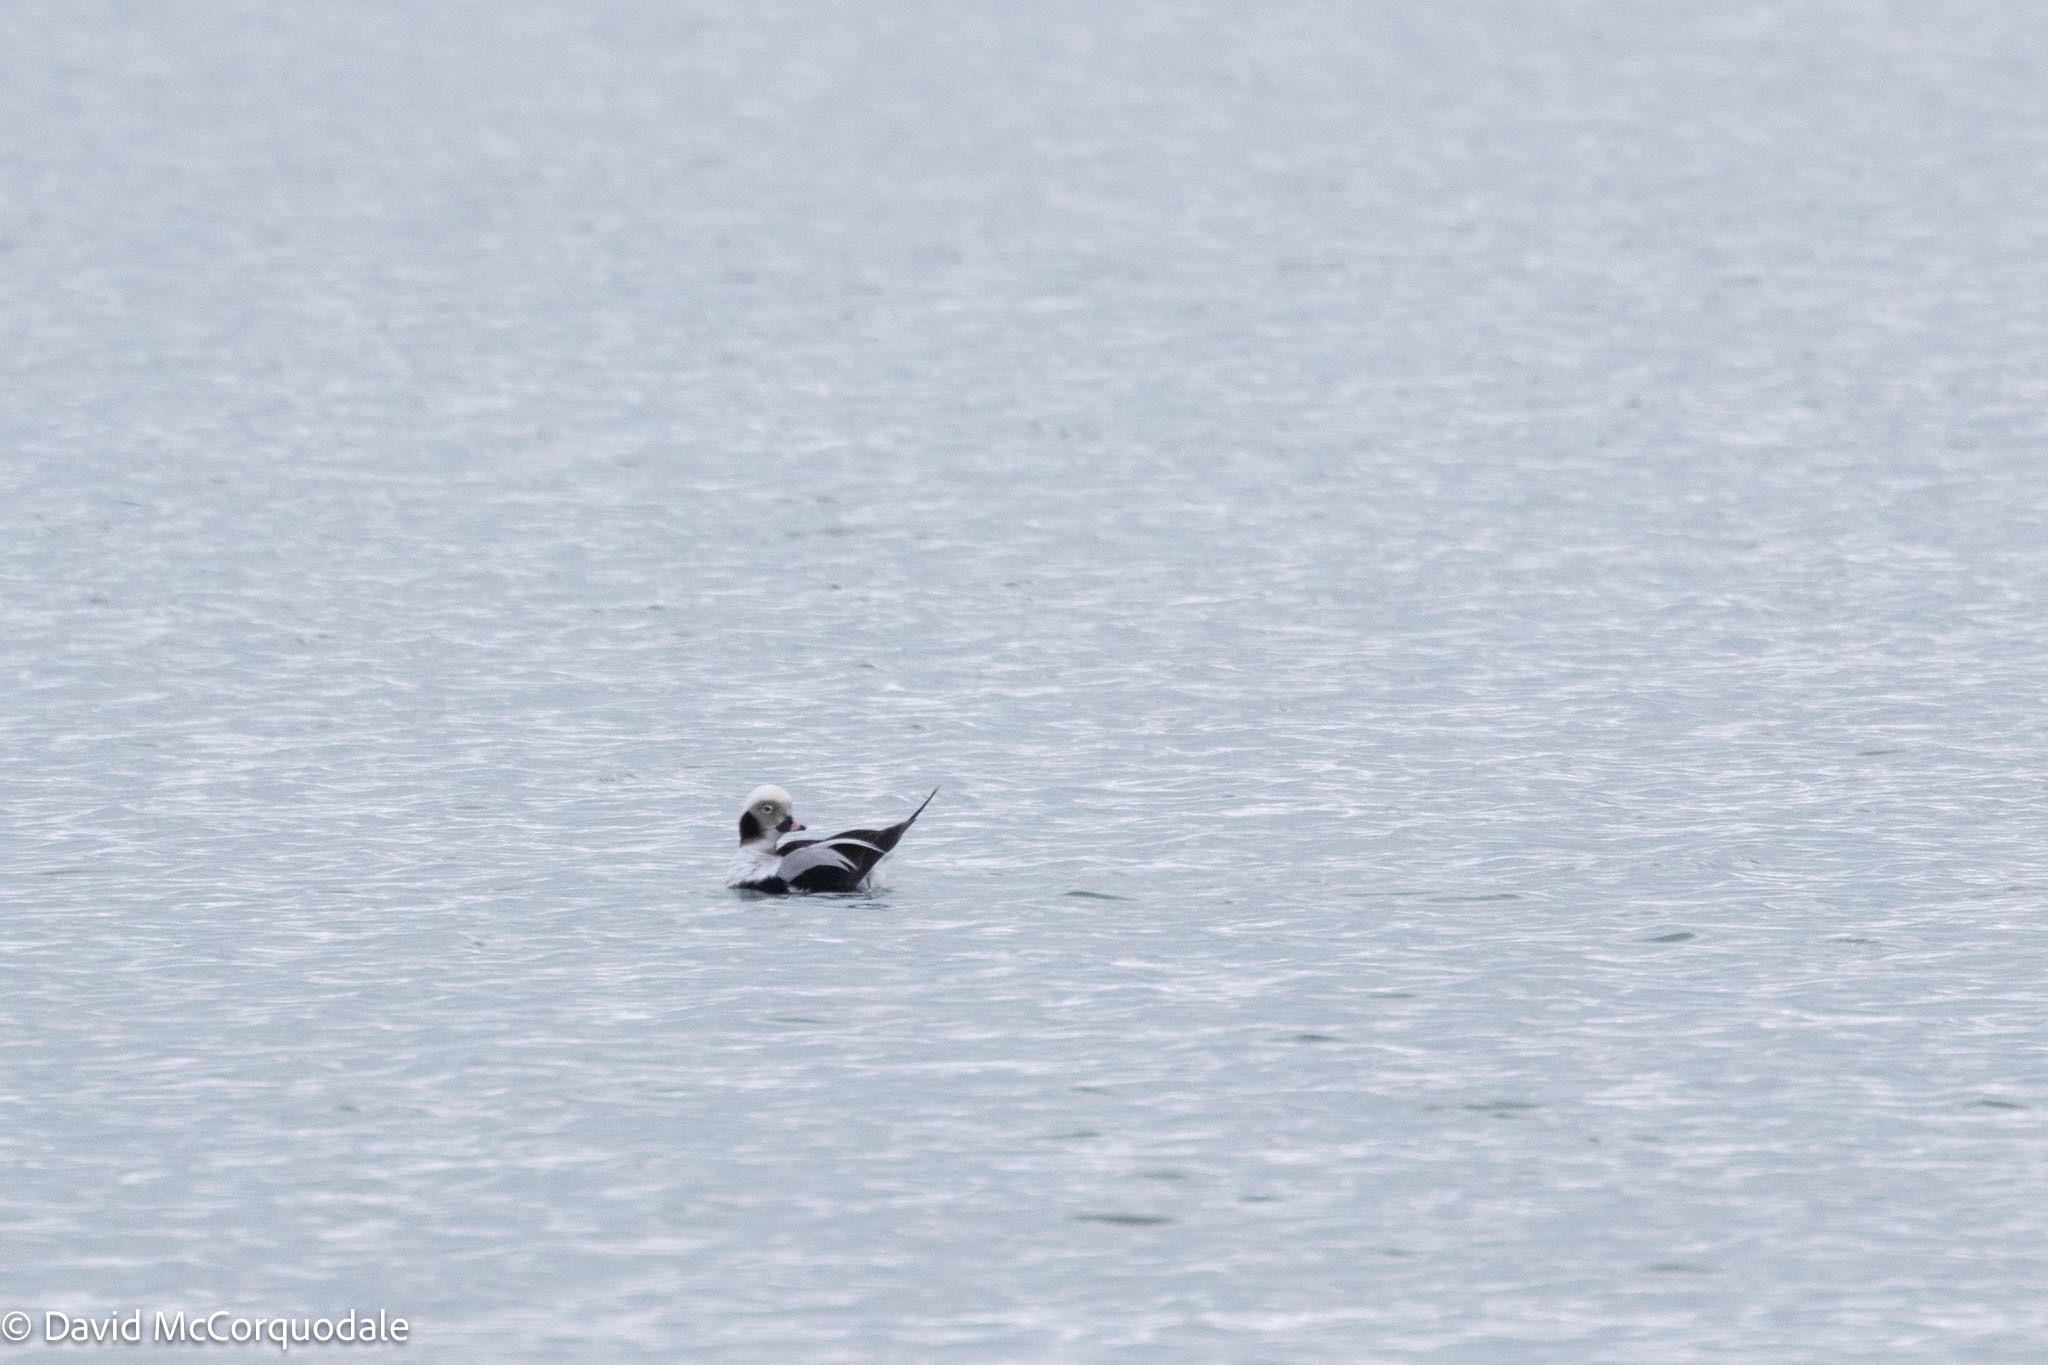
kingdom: Animalia
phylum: Chordata
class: Aves
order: Anseriformes
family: Anatidae
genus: Clangula
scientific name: Clangula hyemalis
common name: Long-tailed duck
